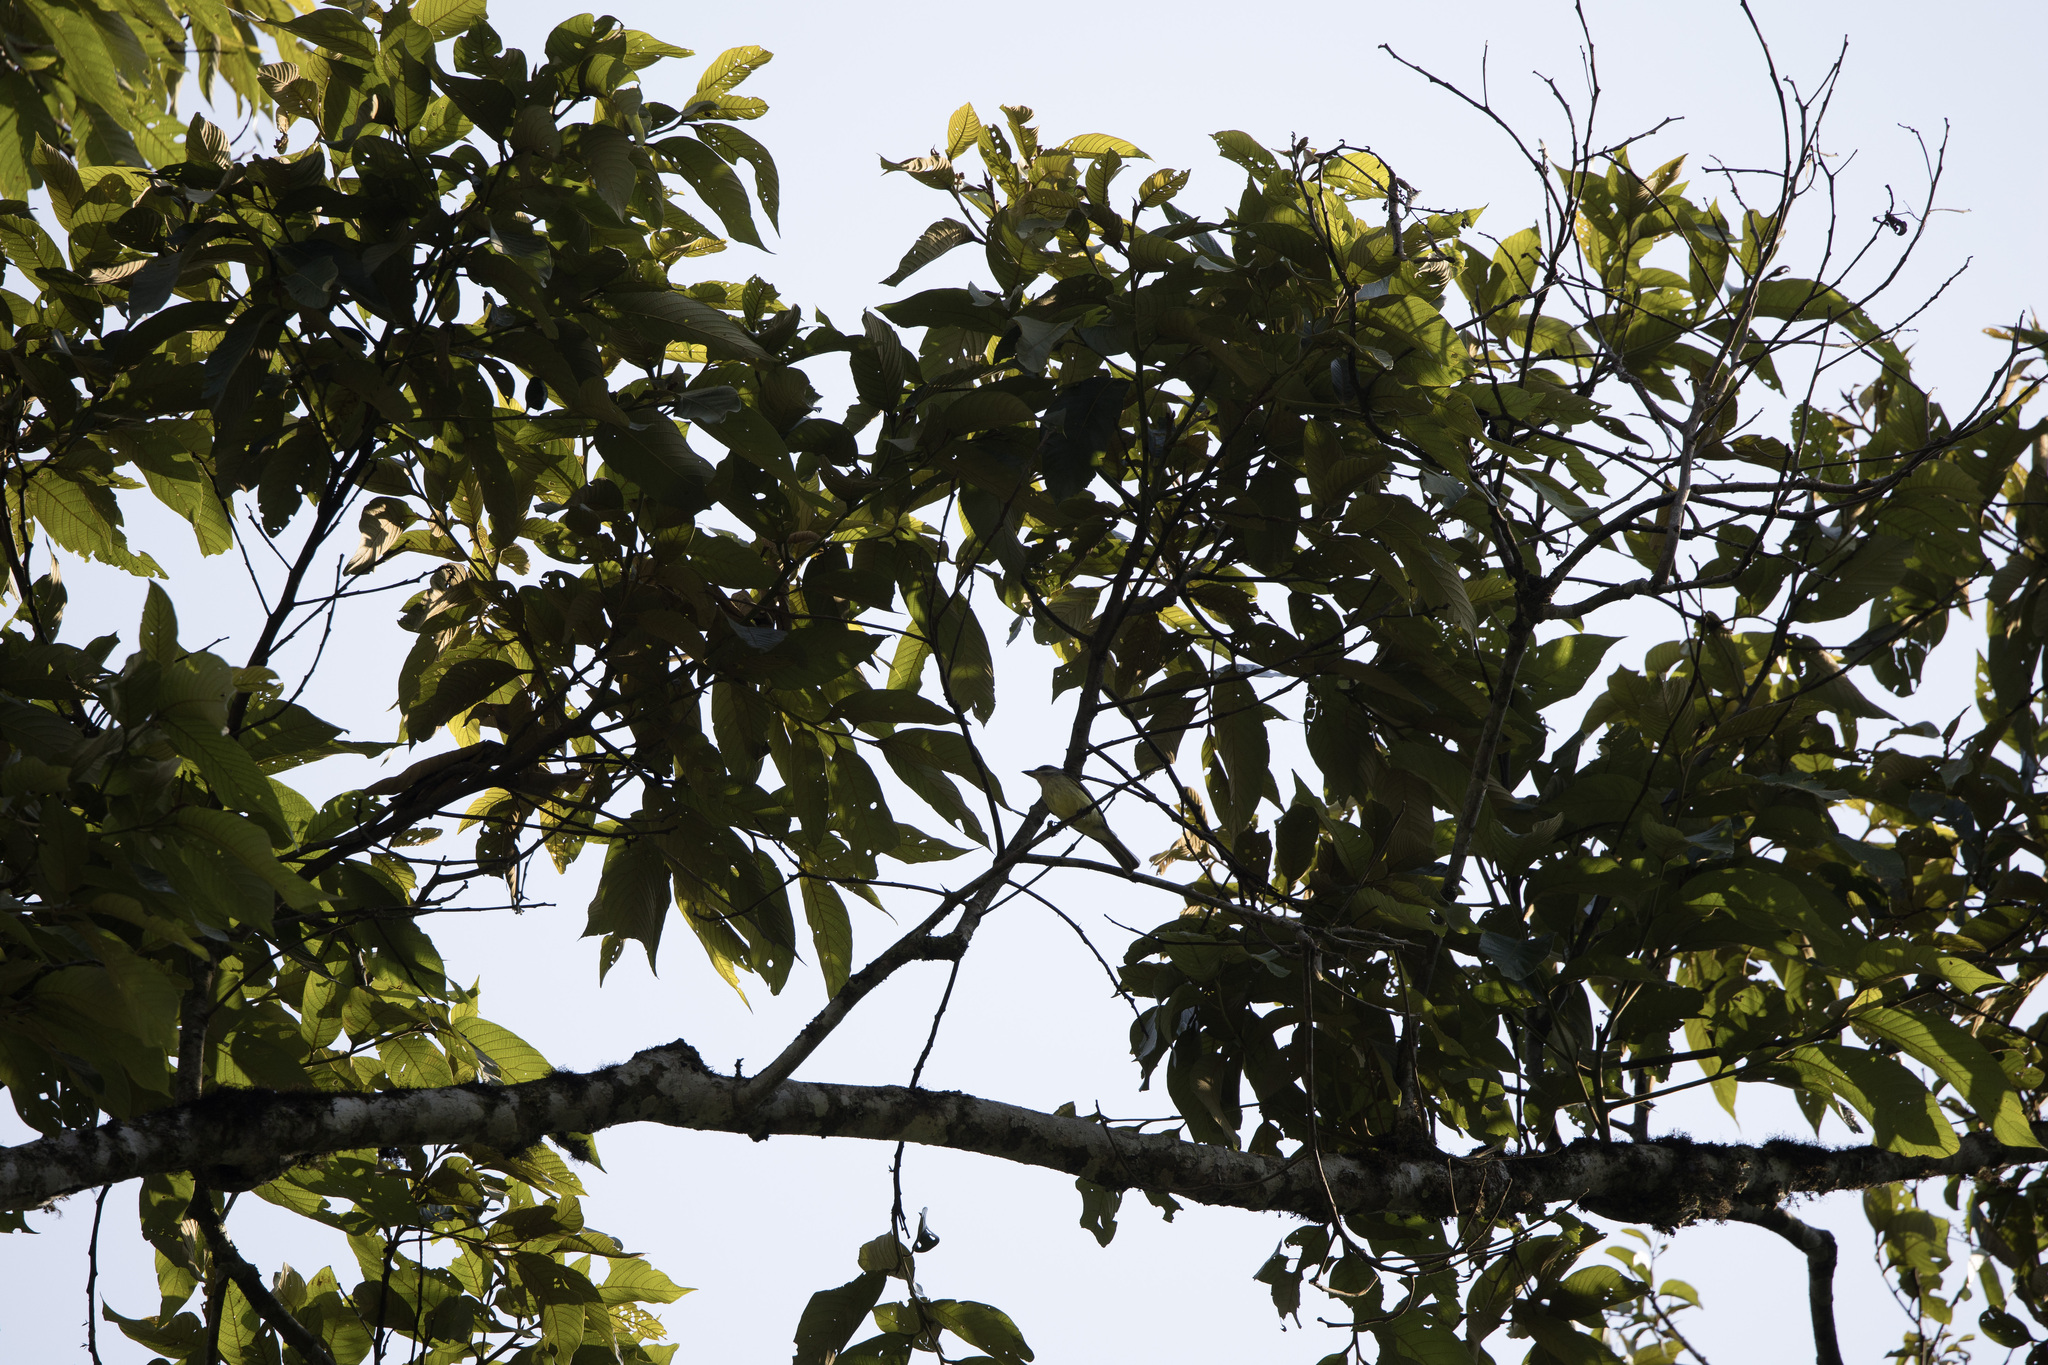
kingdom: Animalia
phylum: Chordata
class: Aves
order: Passeriformes
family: Tyrannidae
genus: Myiodynastes
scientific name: Myiodynastes chrysocephalus
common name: Golden-crowned flycatcher
